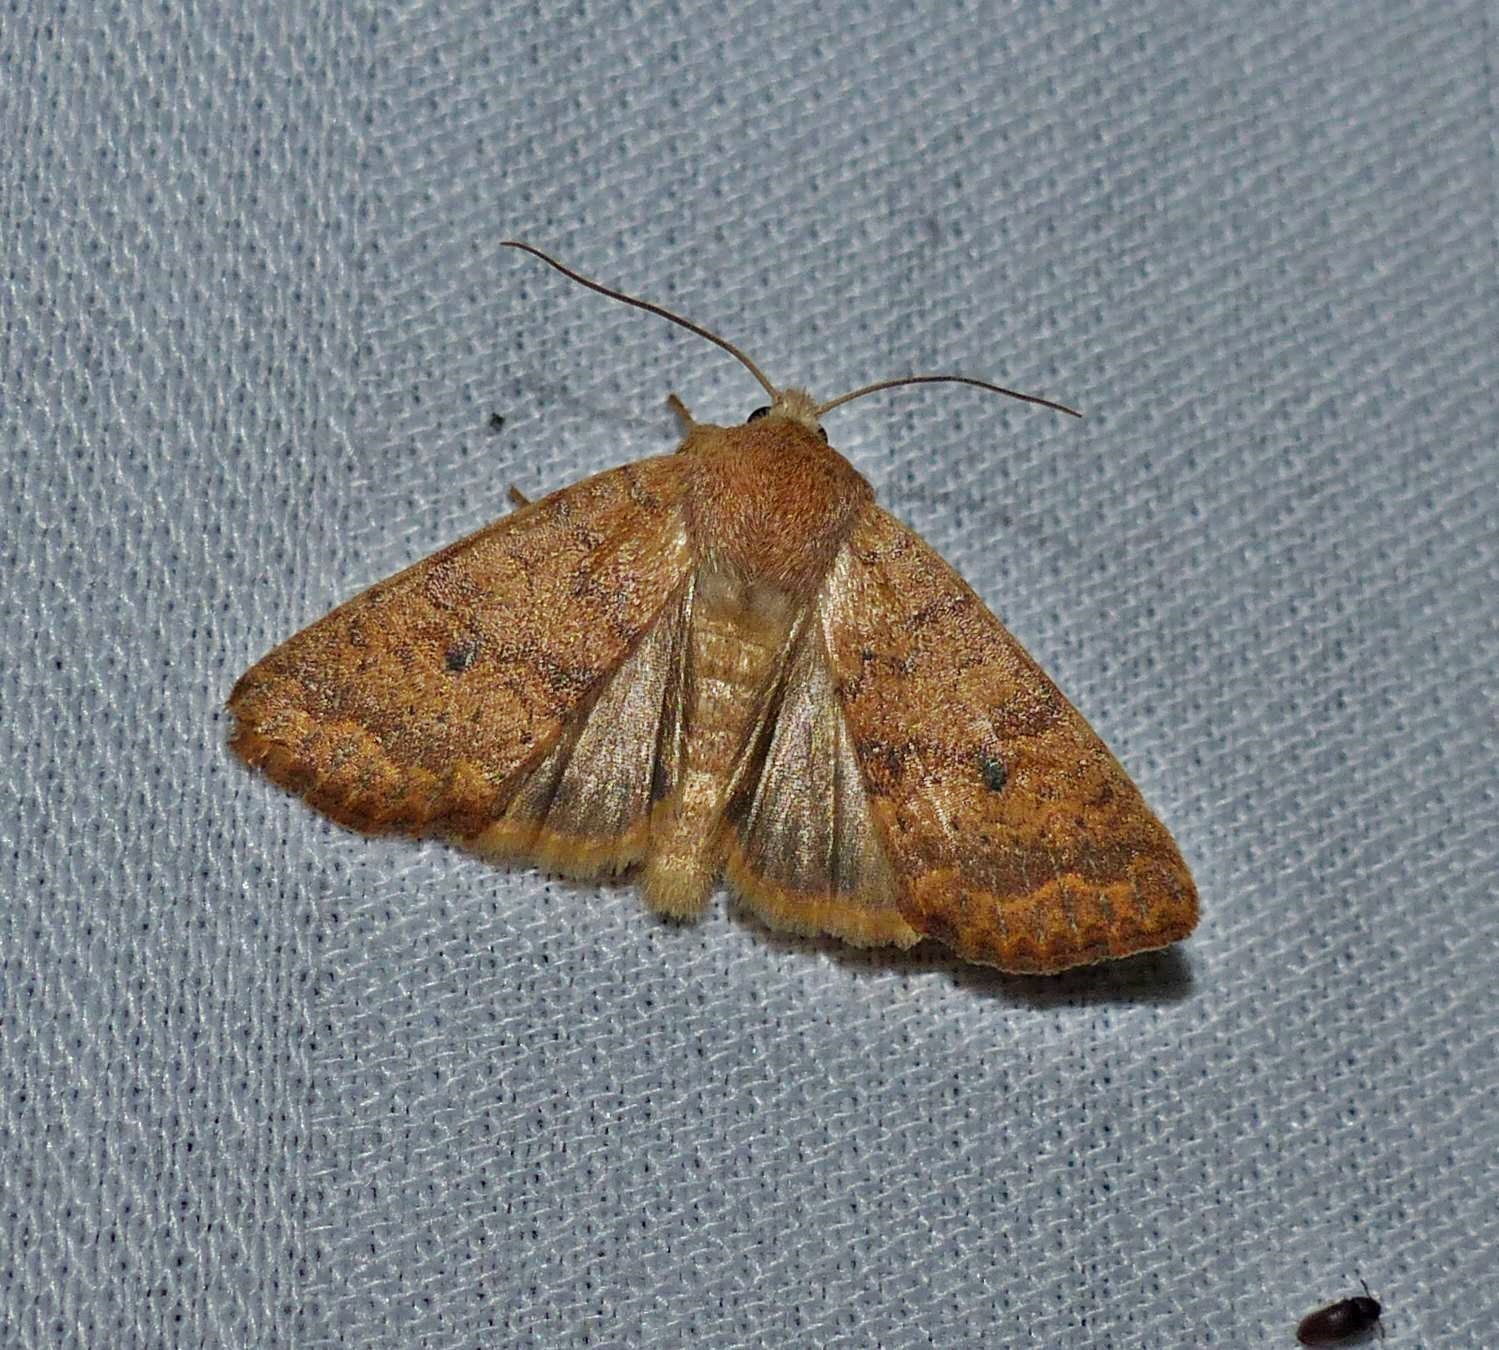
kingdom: Animalia
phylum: Arthropoda
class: Insecta
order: Lepidoptera
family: Noctuidae
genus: Agrochola
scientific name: Agrochola bicolorago
